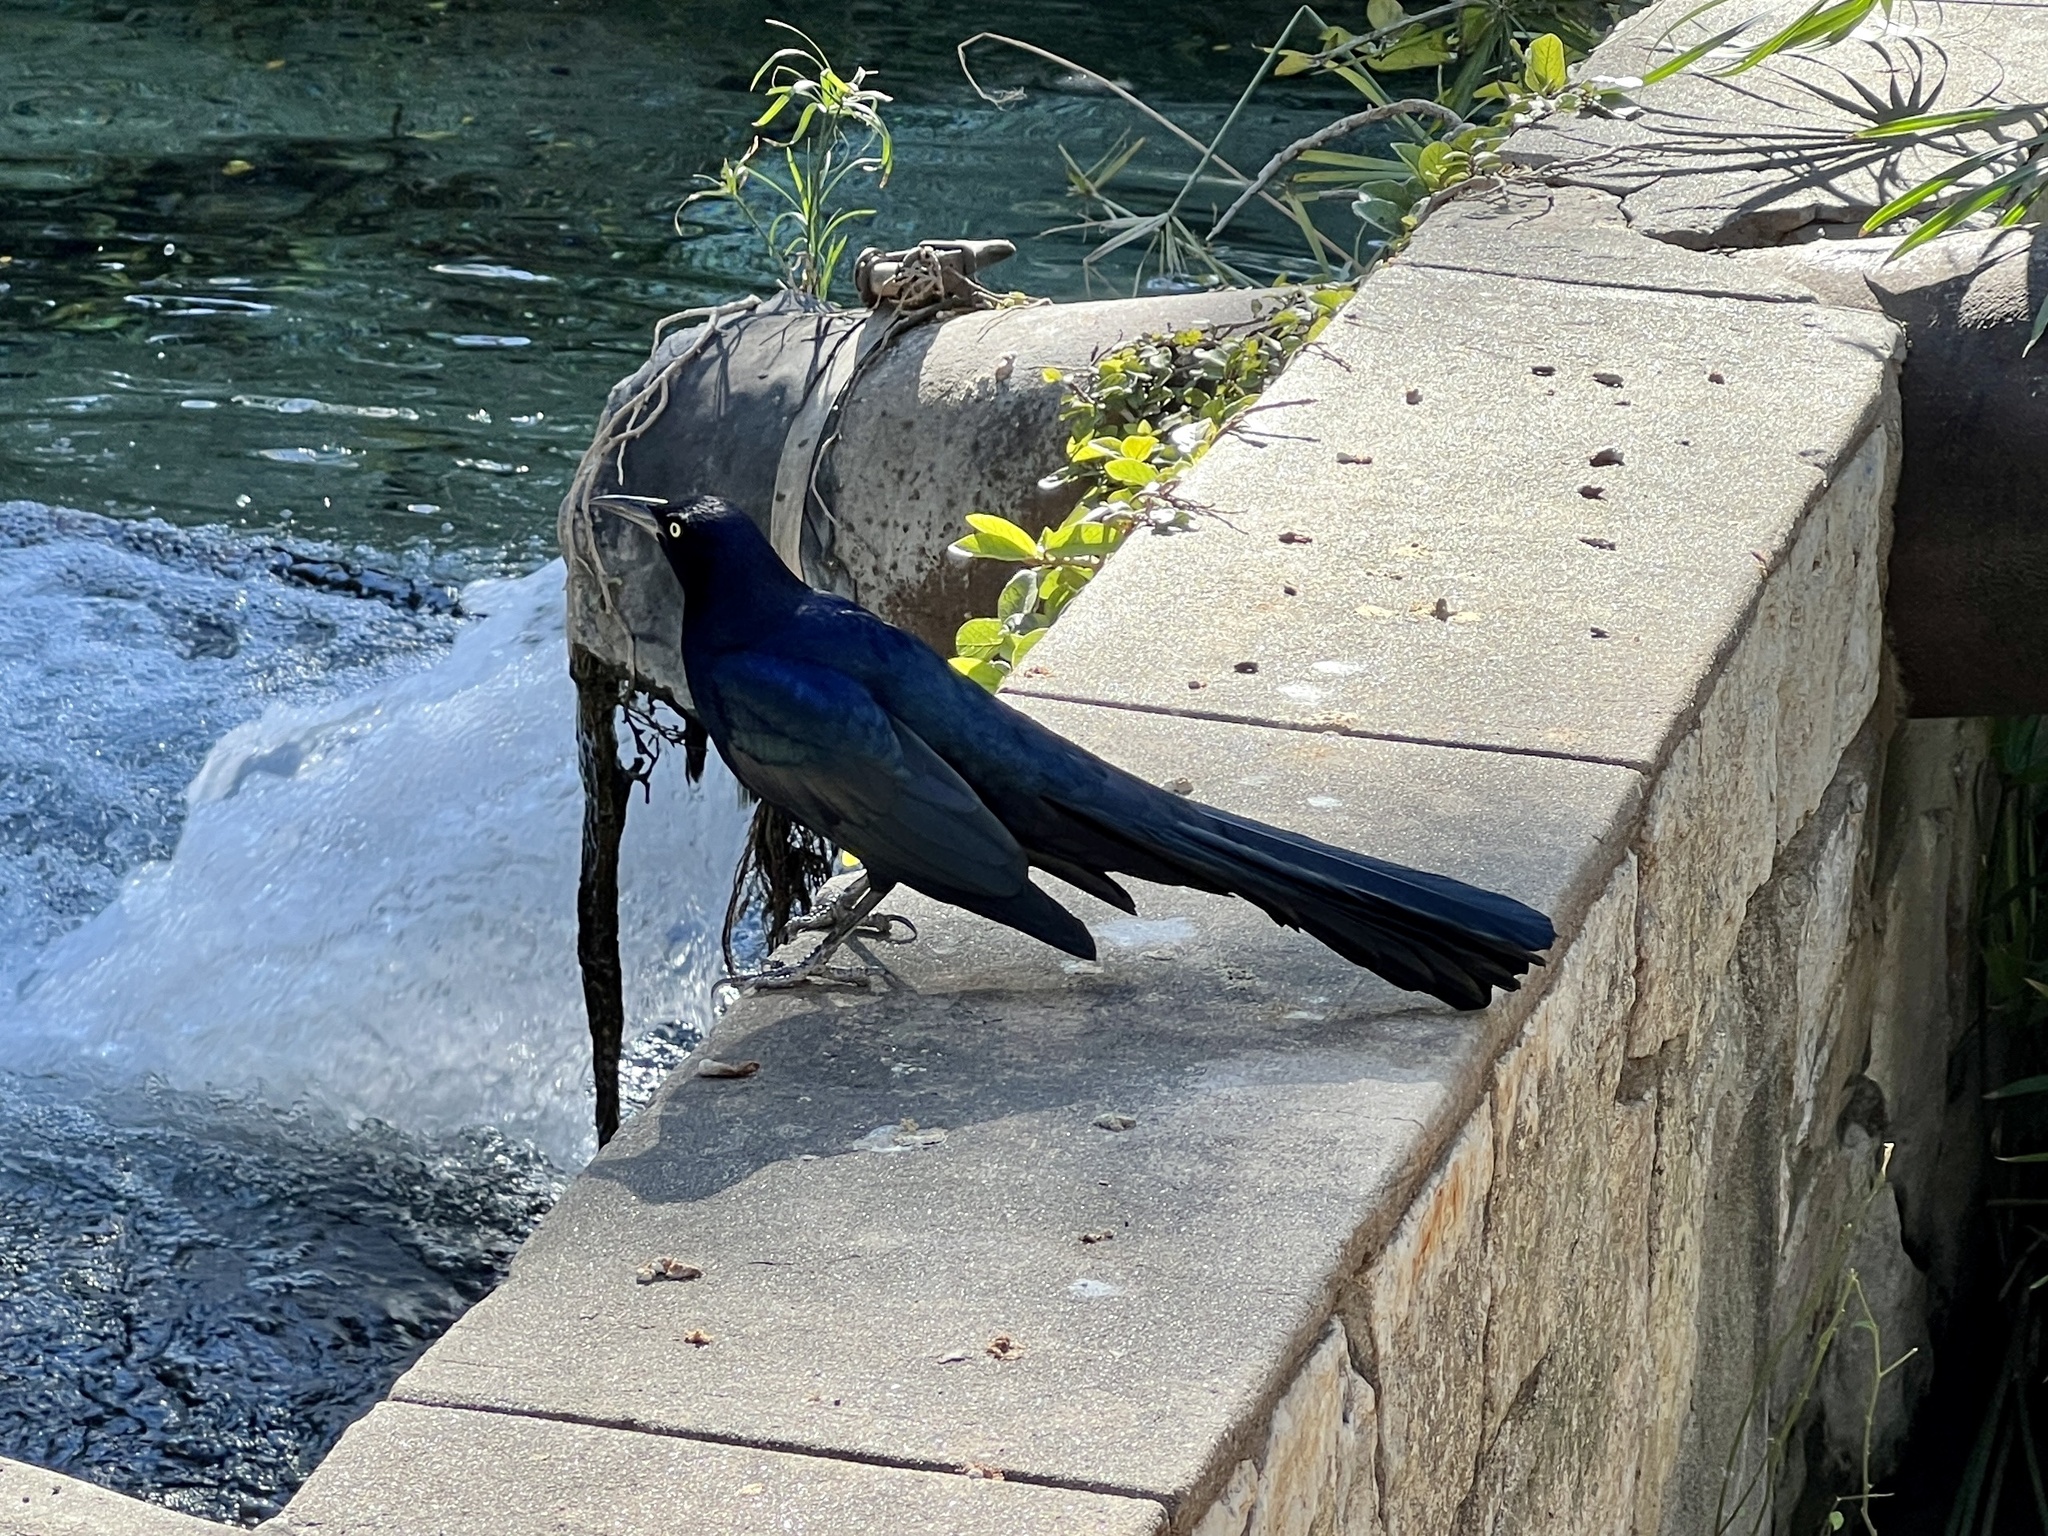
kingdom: Animalia
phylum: Chordata
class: Aves
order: Passeriformes
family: Icteridae
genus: Quiscalus
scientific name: Quiscalus mexicanus
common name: Great-tailed grackle
